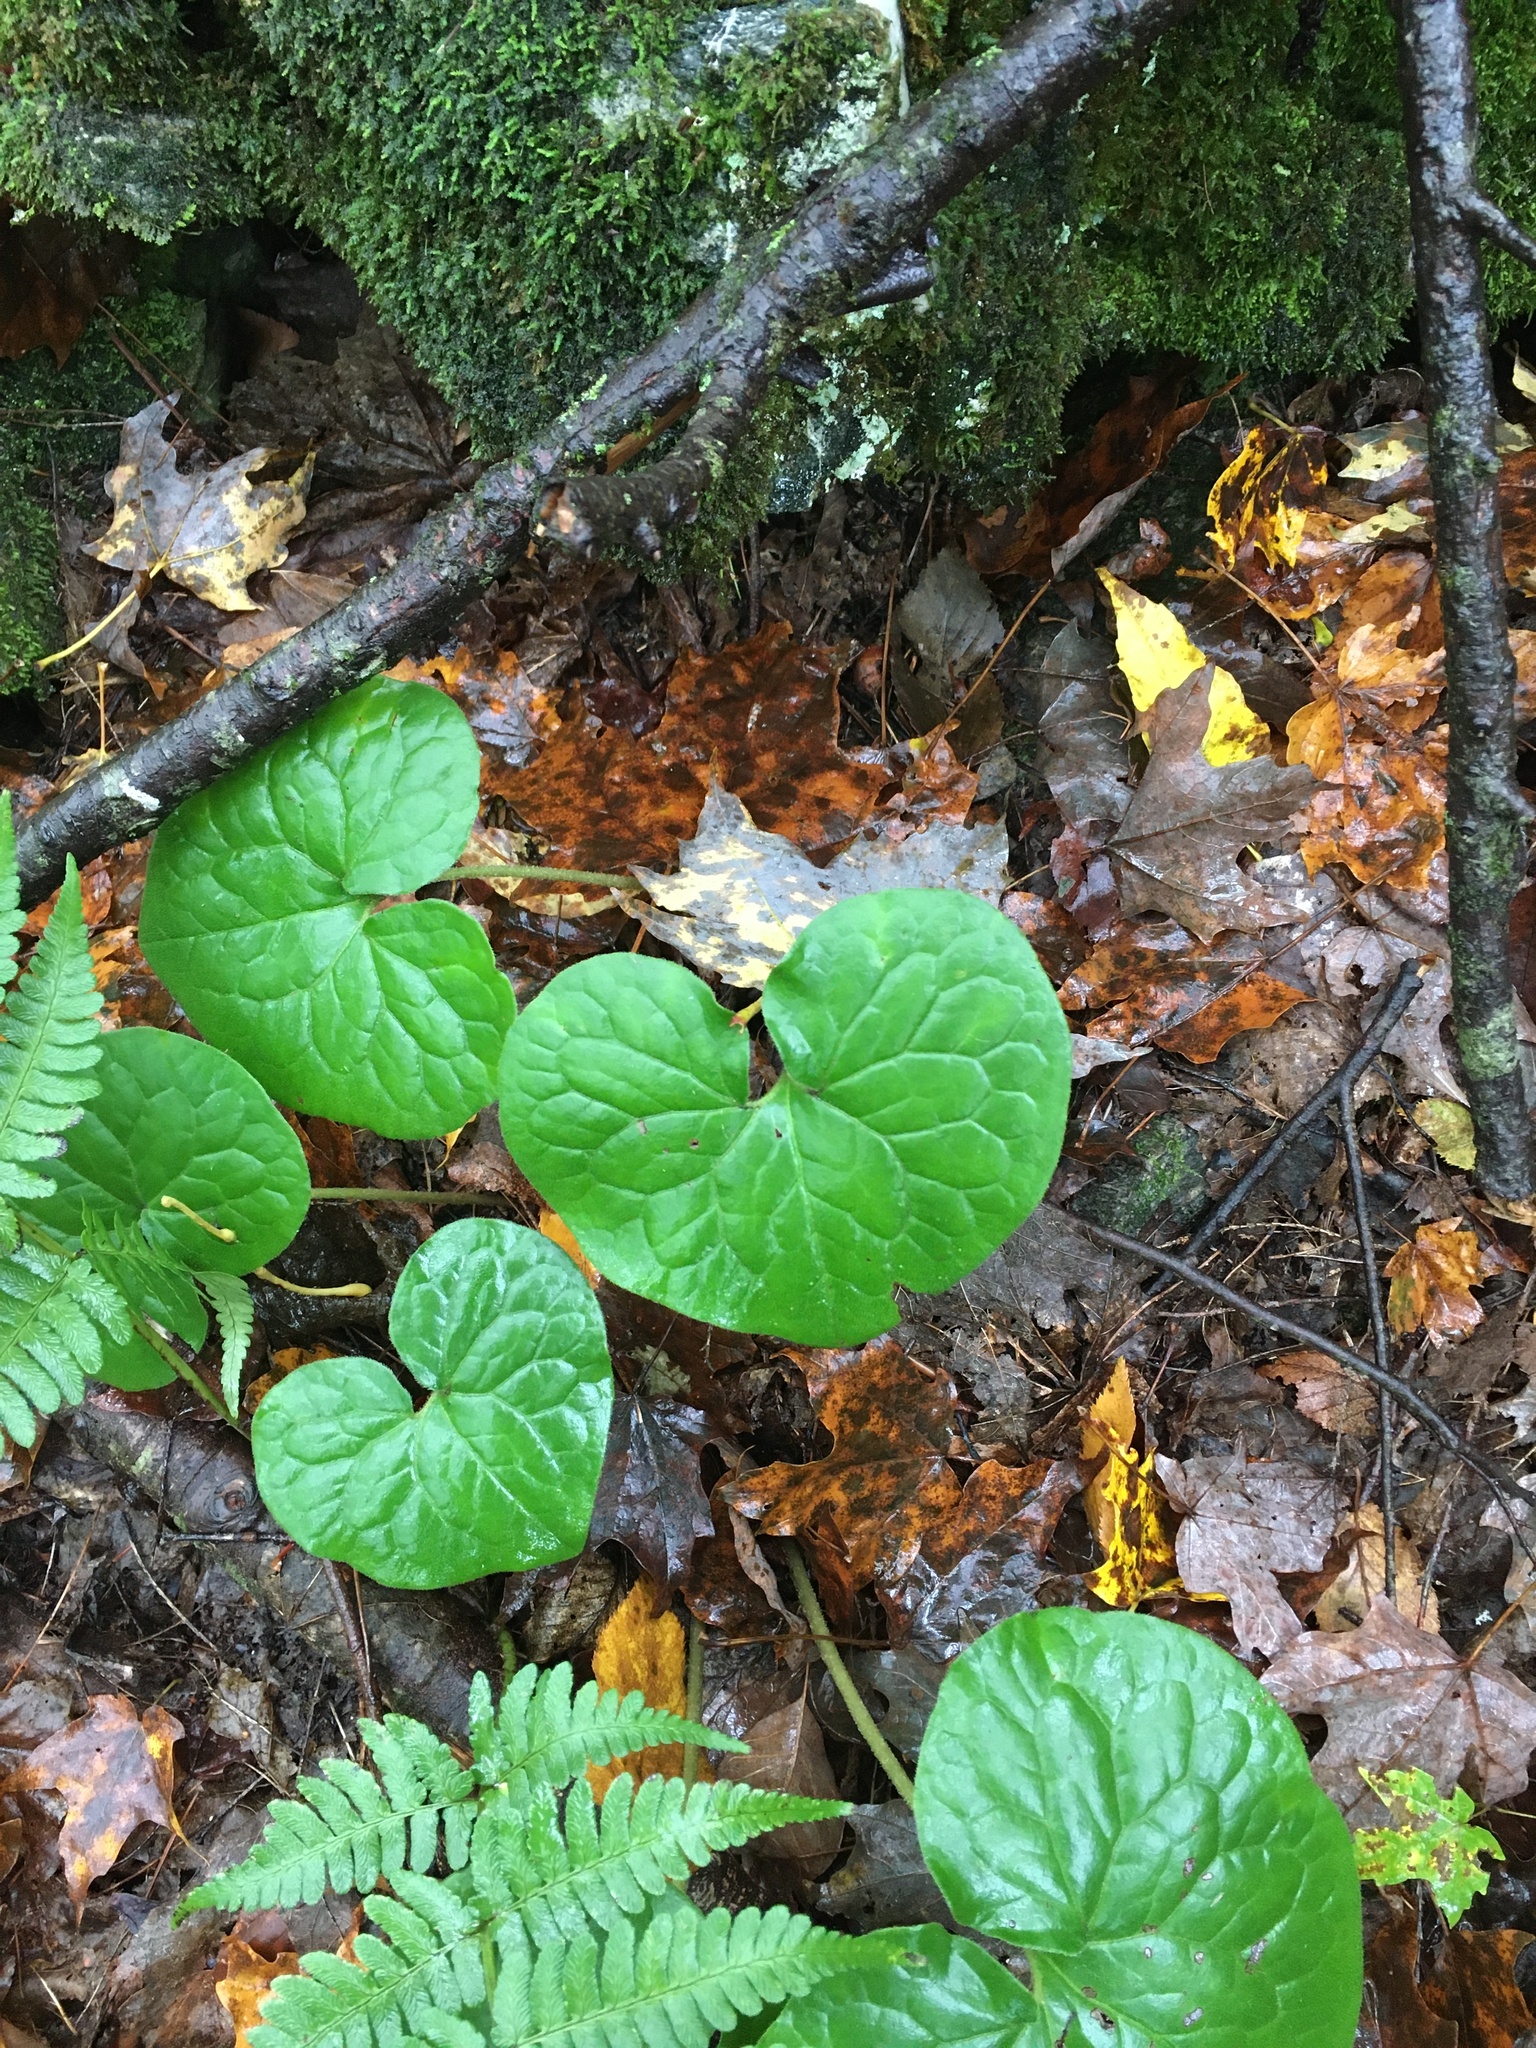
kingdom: Plantae
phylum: Tracheophyta
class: Magnoliopsida
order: Piperales
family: Aristolochiaceae
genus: Asarum
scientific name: Asarum canadense
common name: Wild ginger
